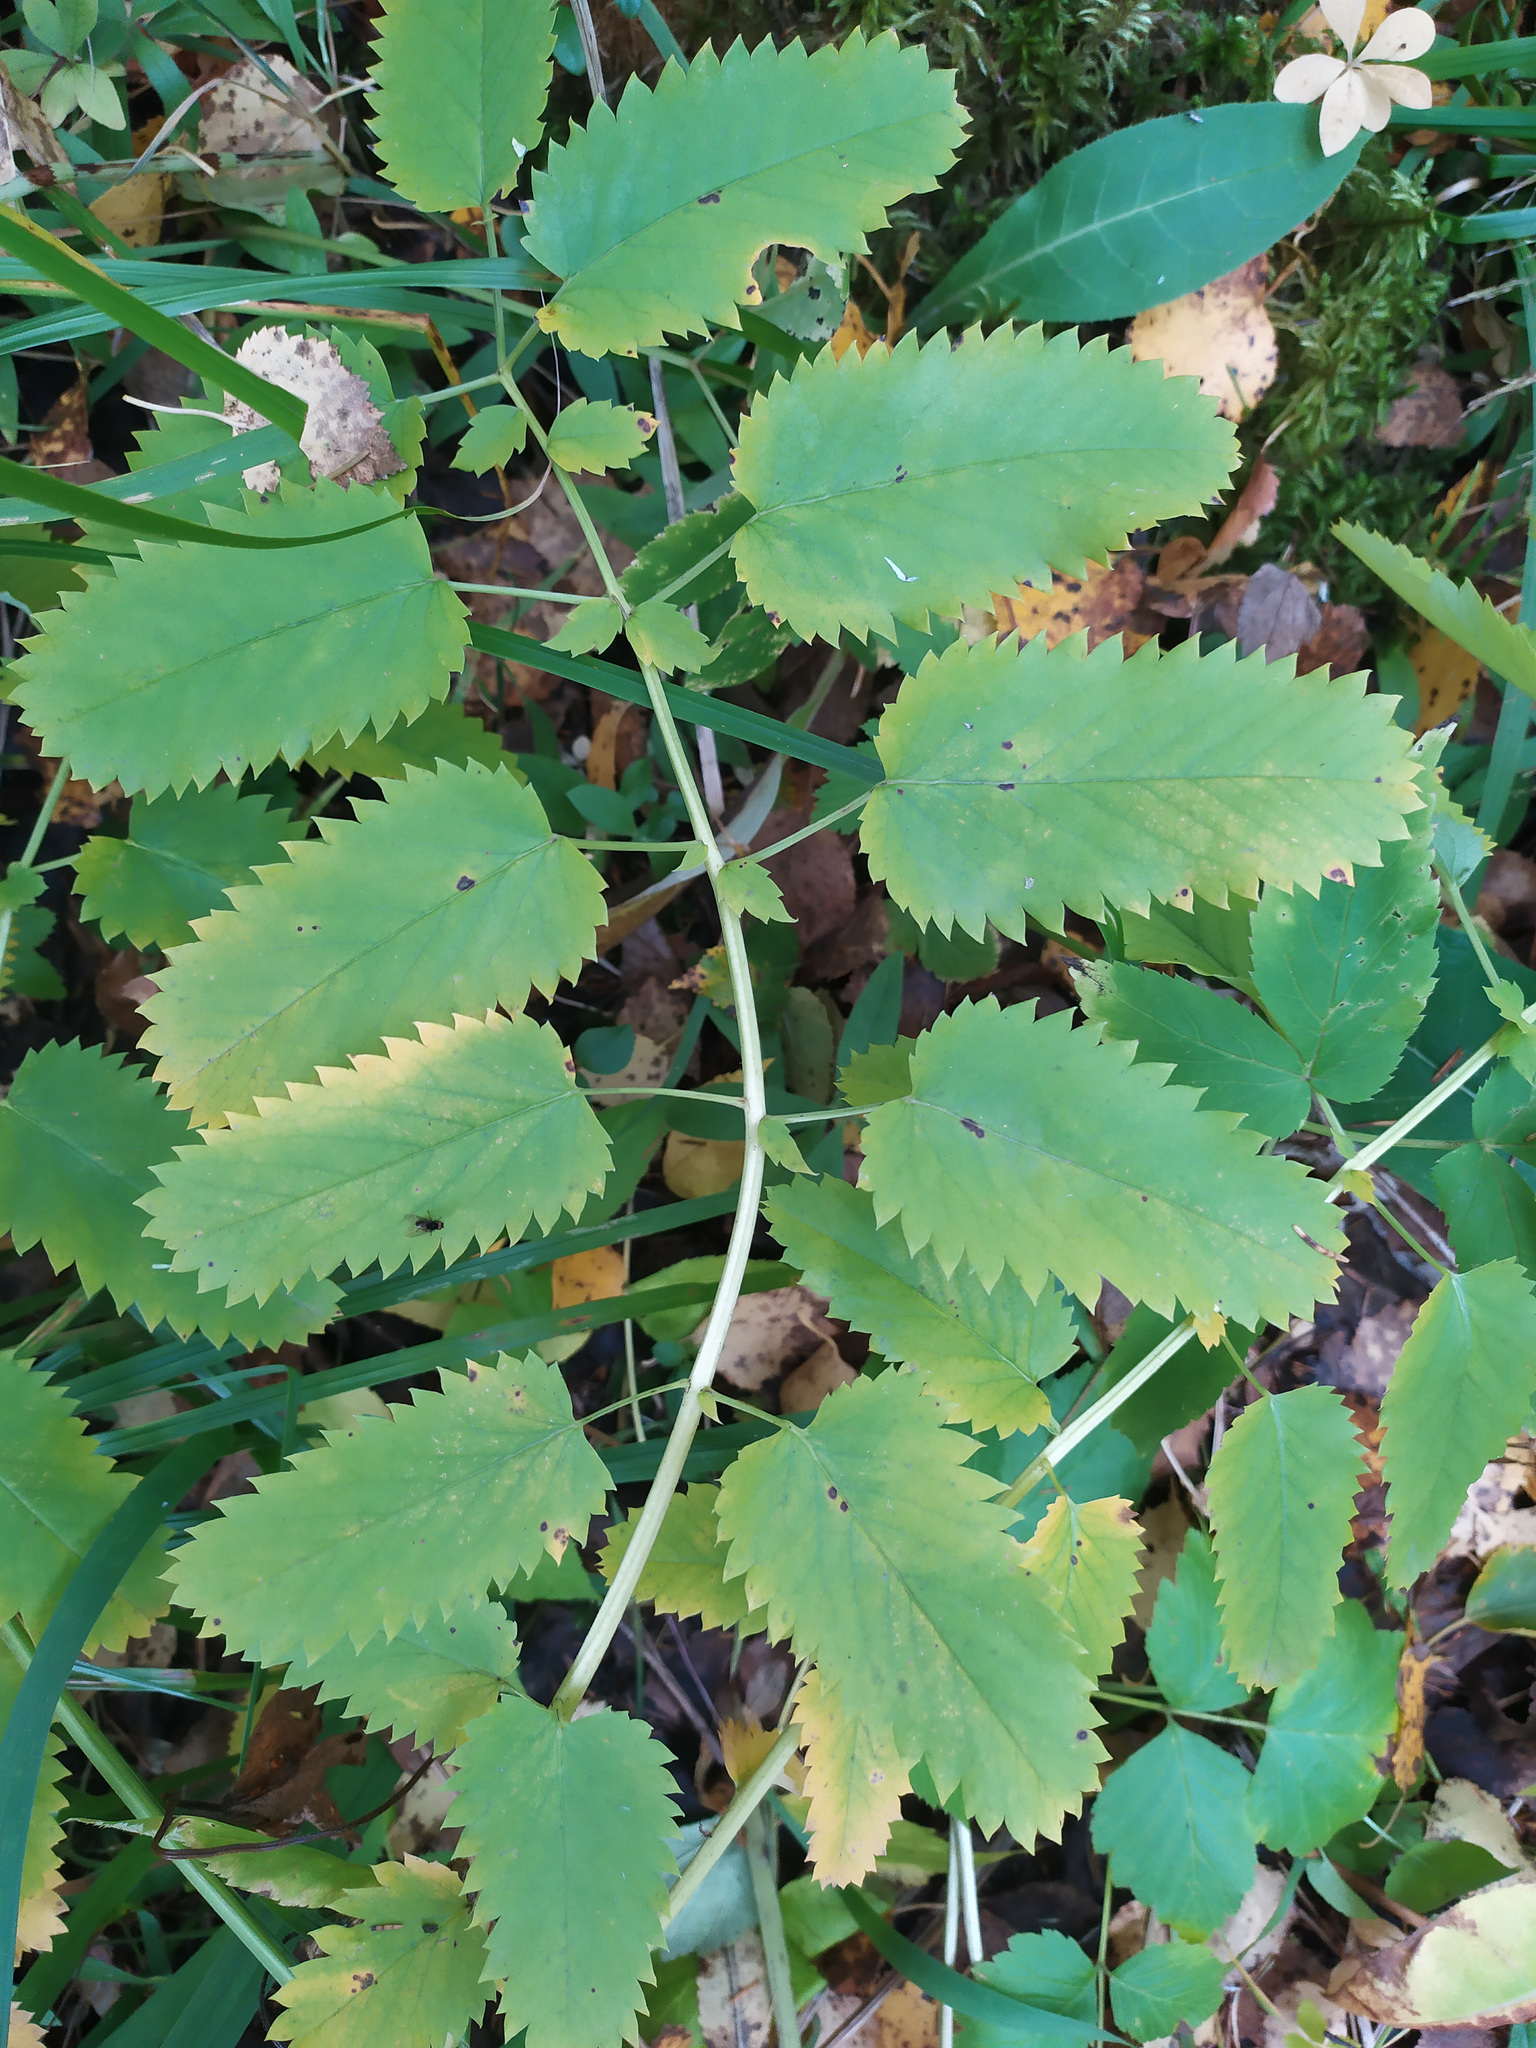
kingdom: Plantae
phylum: Tracheophyta
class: Magnoliopsida
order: Rosales
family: Rosaceae
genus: Sanguisorba
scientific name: Sanguisorba officinalis
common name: Great burnet
